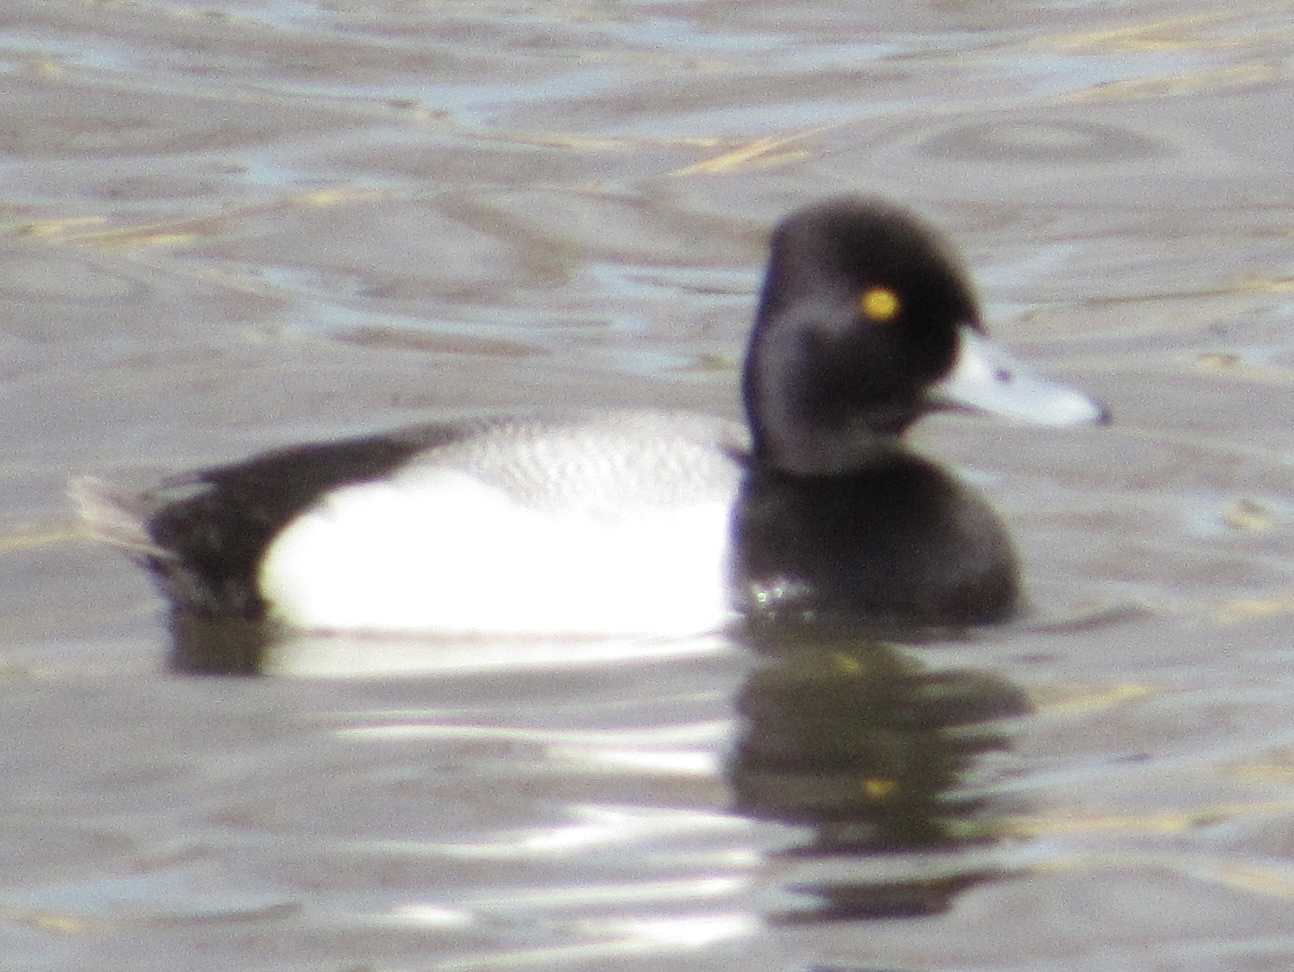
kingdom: Animalia
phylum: Chordata
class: Aves
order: Anseriformes
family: Anatidae
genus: Aythya
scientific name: Aythya affinis
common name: Lesser scaup
